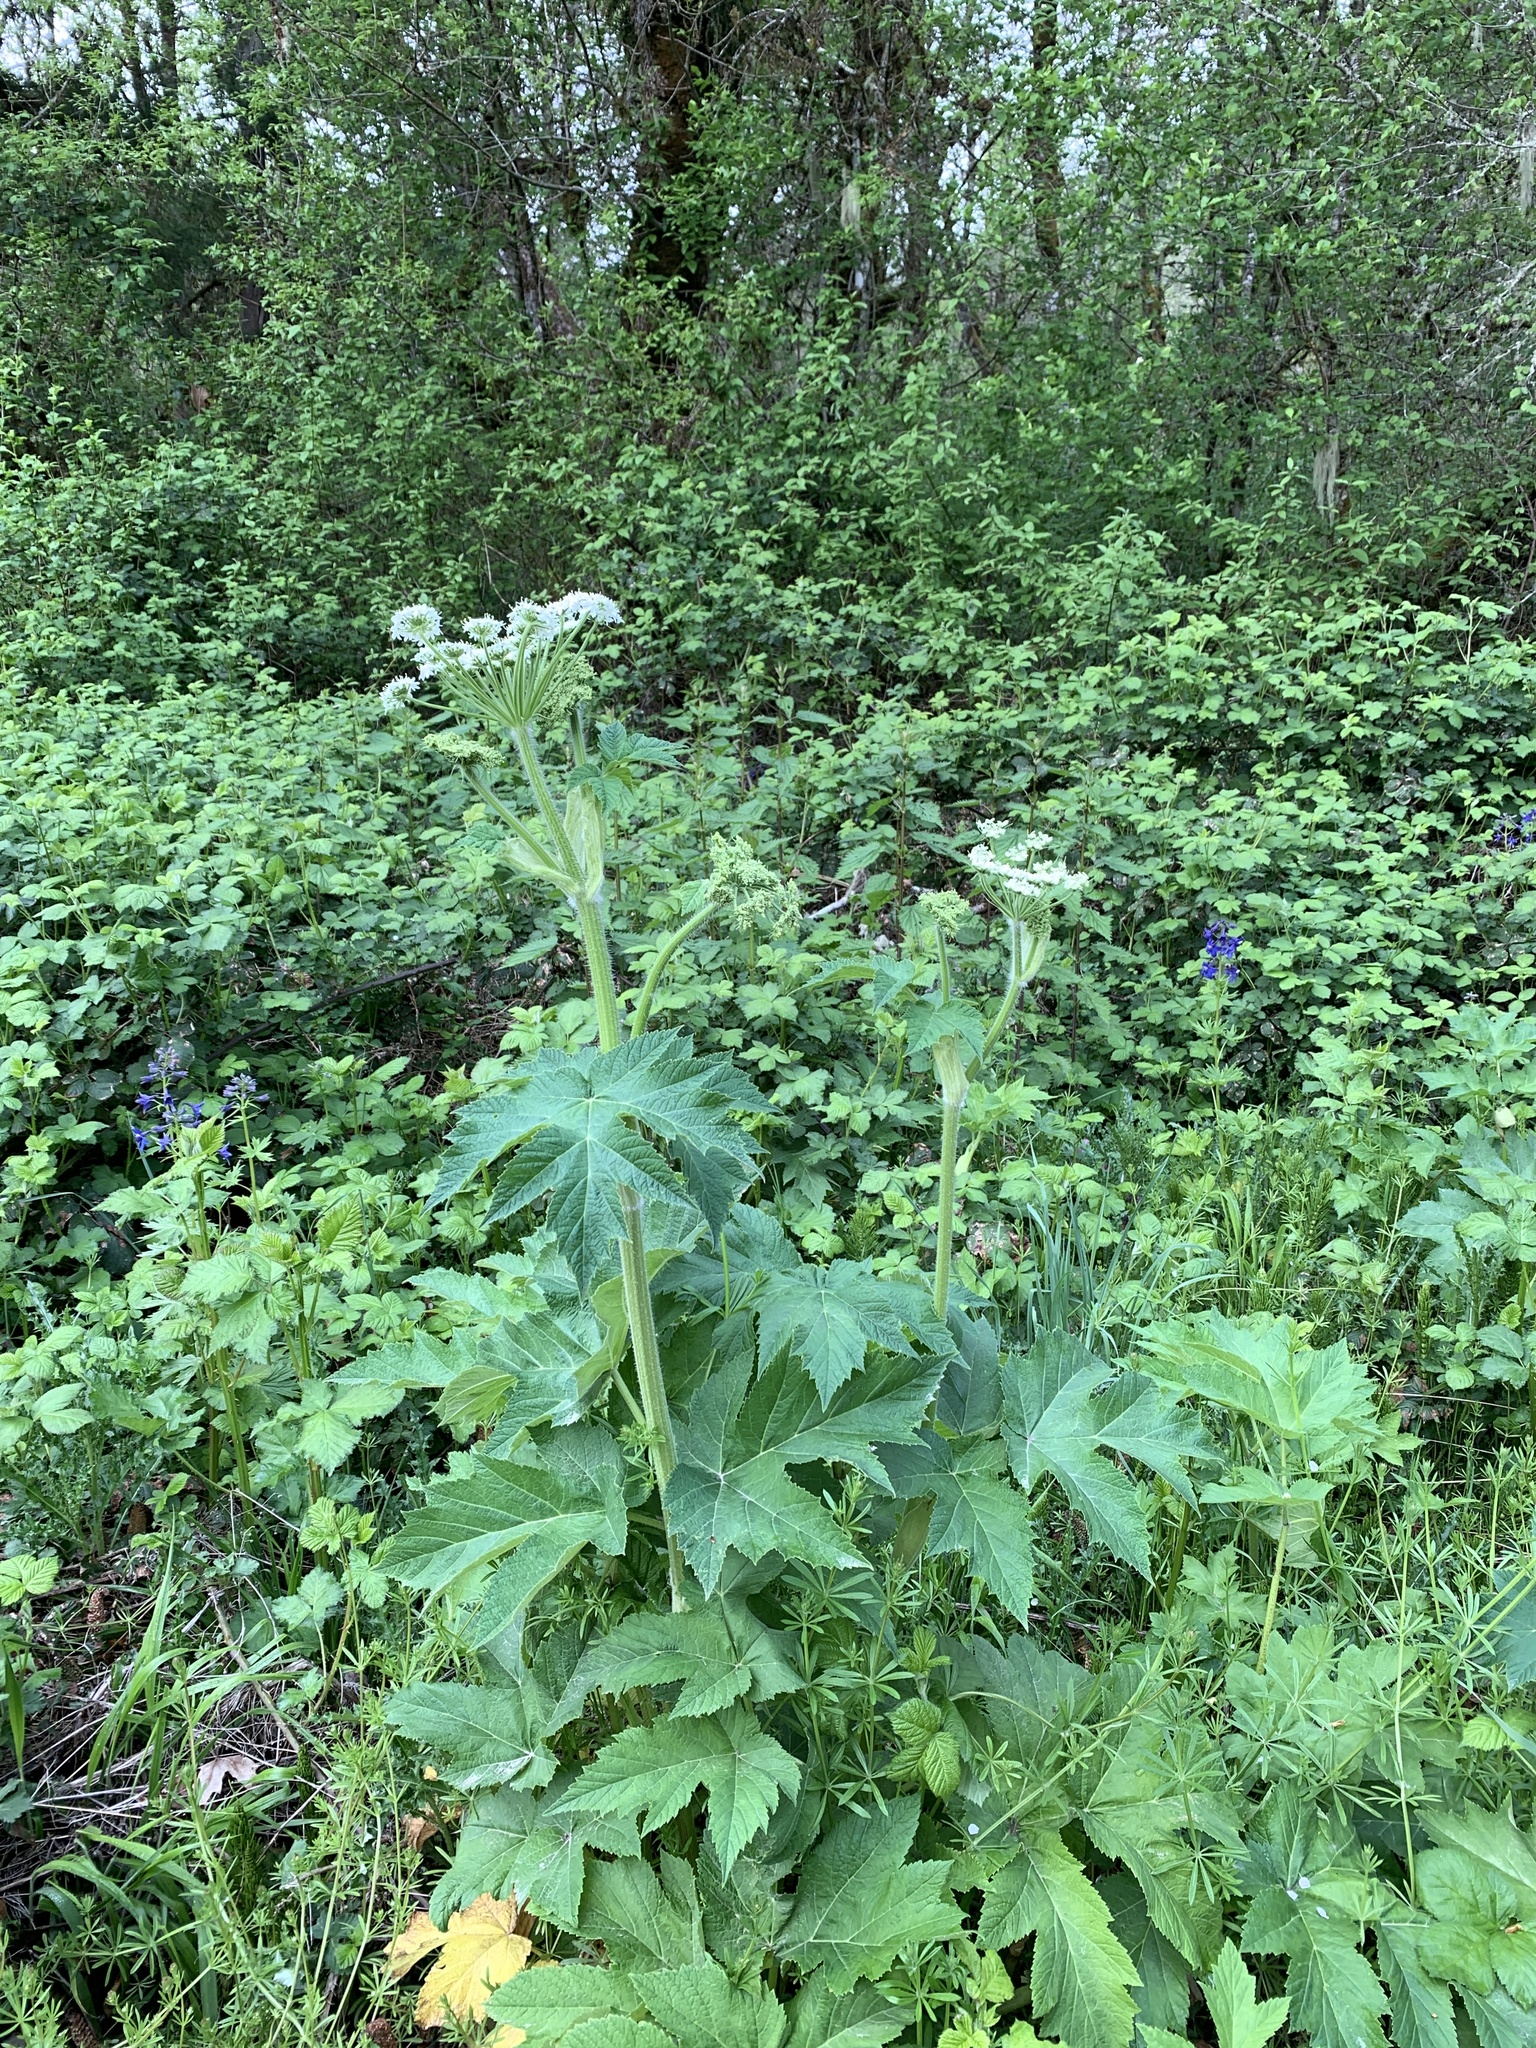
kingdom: Plantae
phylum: Tracheophyta
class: Magnoliopsida
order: Apiales
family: Apiaceae
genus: Heracleum
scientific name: Heracleum maximum
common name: American cow parsnip
